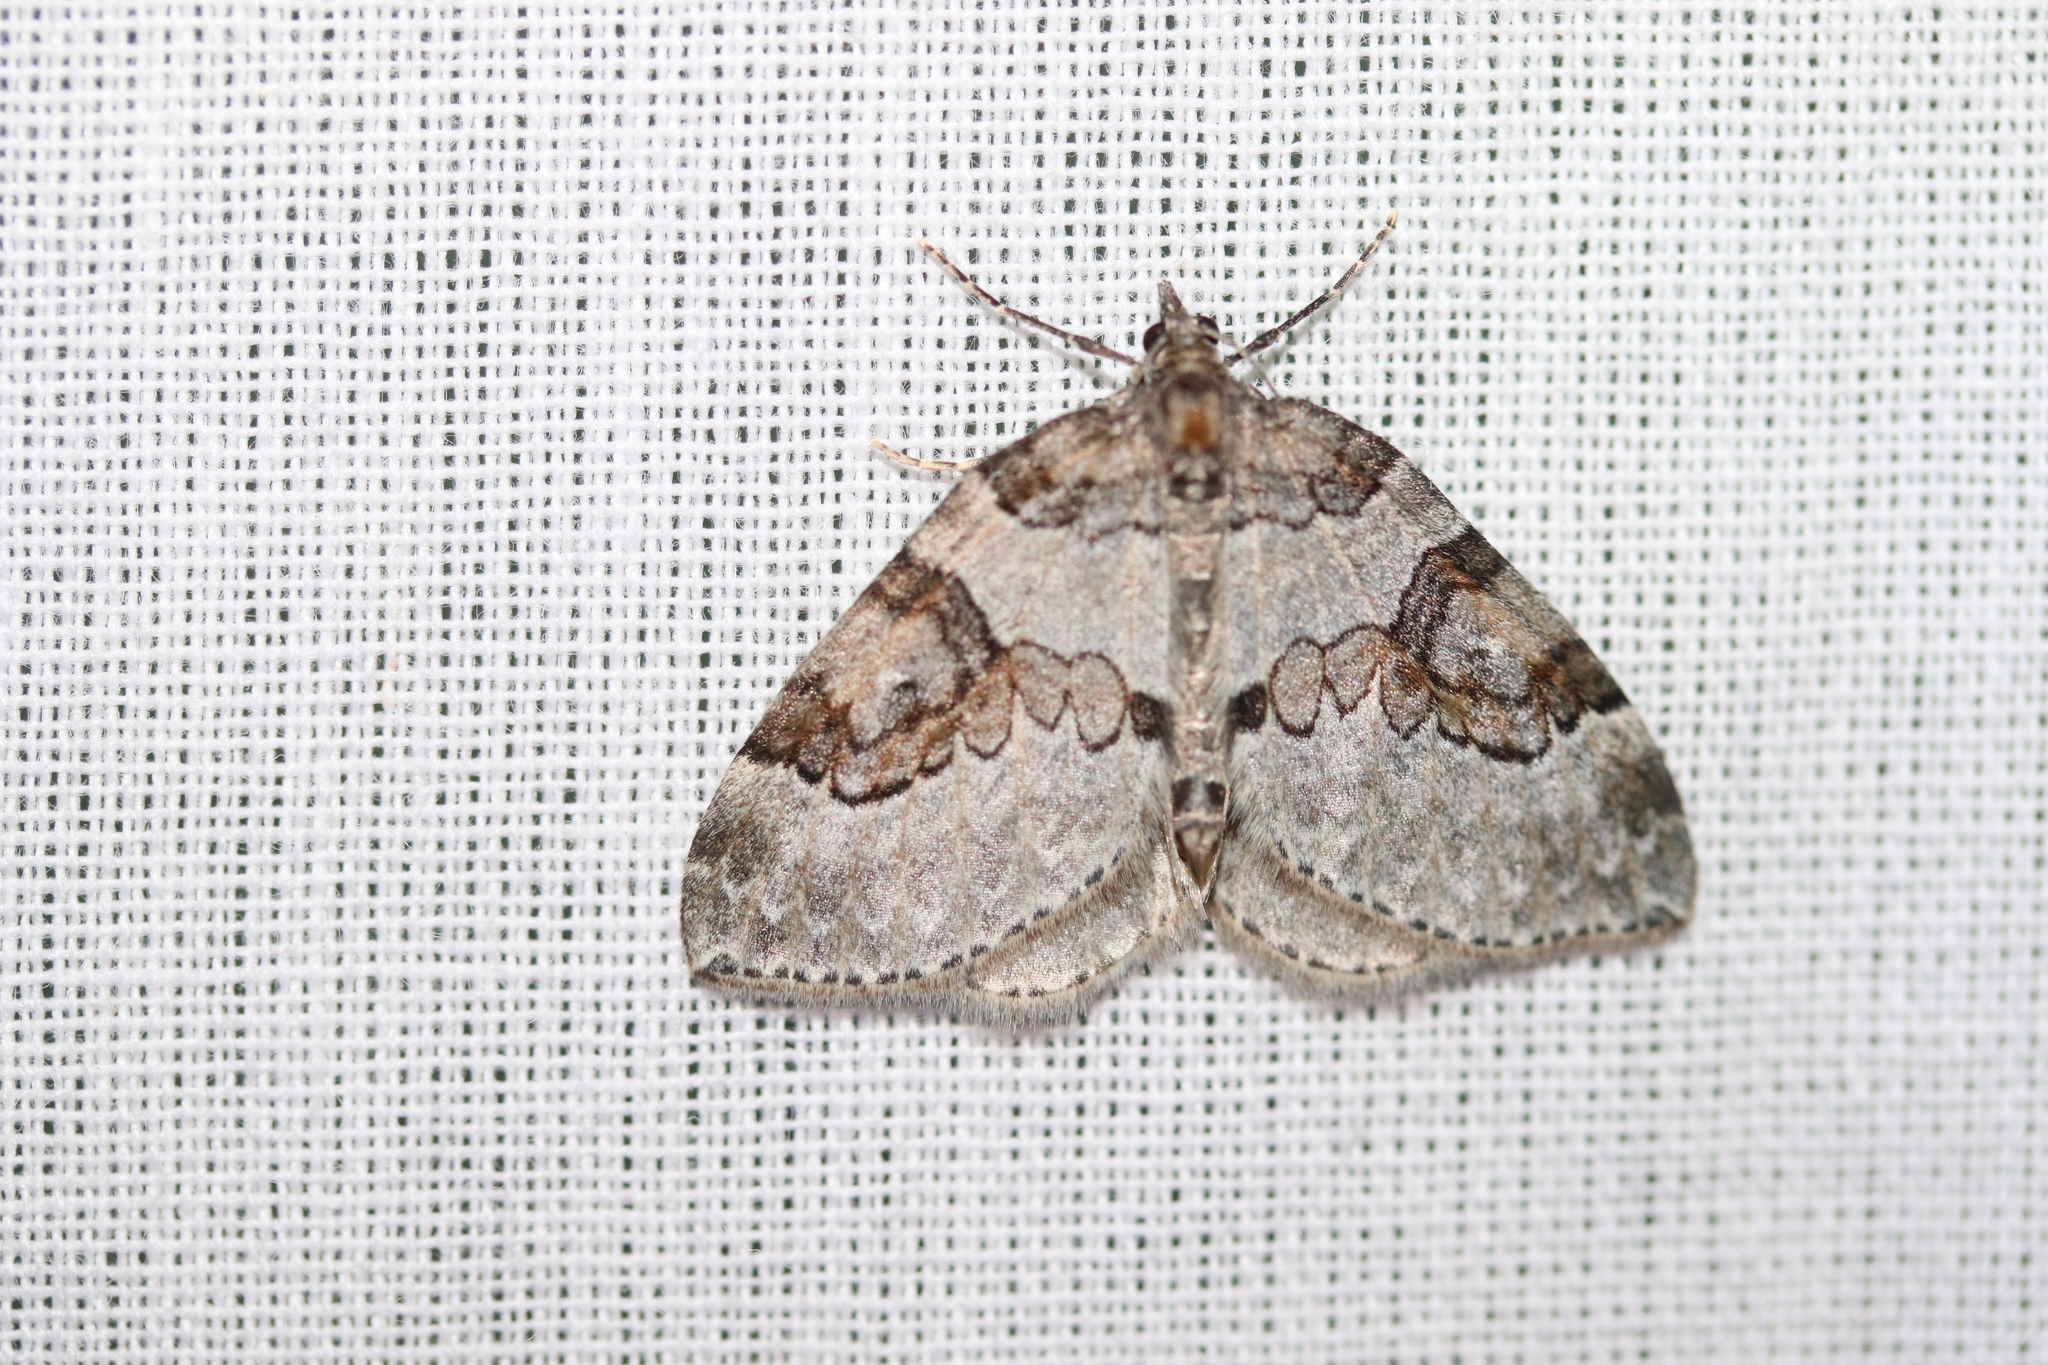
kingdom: Animalia
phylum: Arthropoda
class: Insecta
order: Lepidoptera
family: Geometridae
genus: Plemyria
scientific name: Plemyria georgii
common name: George's carpet moth
